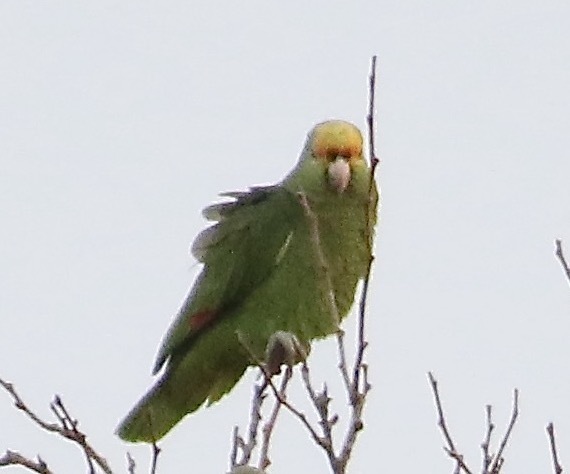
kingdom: Animalia
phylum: Chordata
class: Aves
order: Psittaciformes
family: Psittacidae
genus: Amazona
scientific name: Amazona
